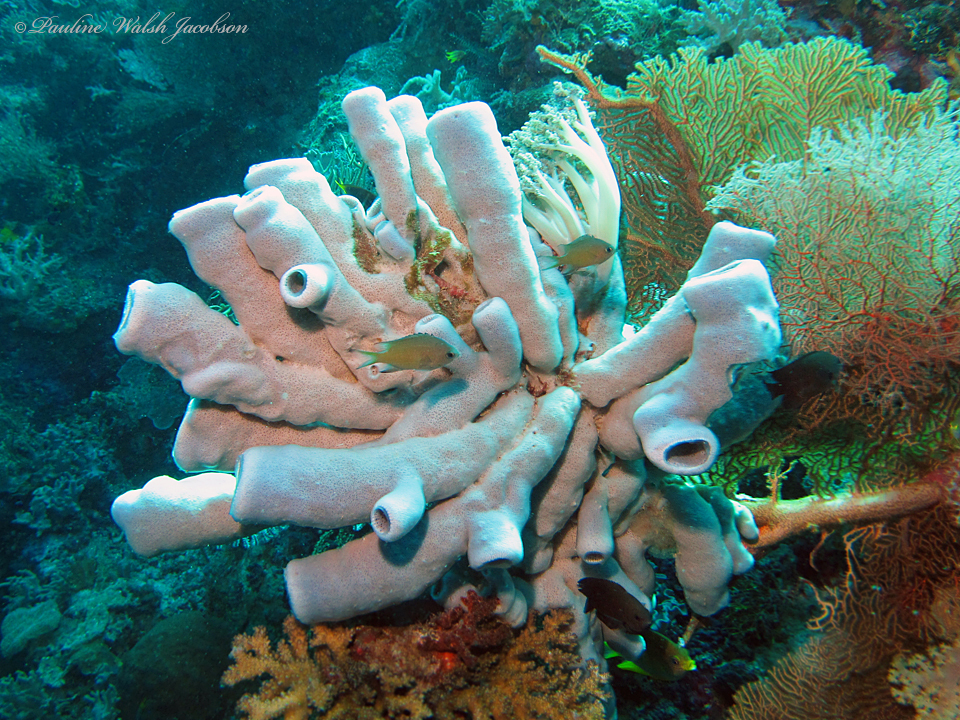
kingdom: Animalia
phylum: Porifera
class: Demospongiae
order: Haplosclerida
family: Niphatidae
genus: Niphates
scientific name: Niphates olemda
